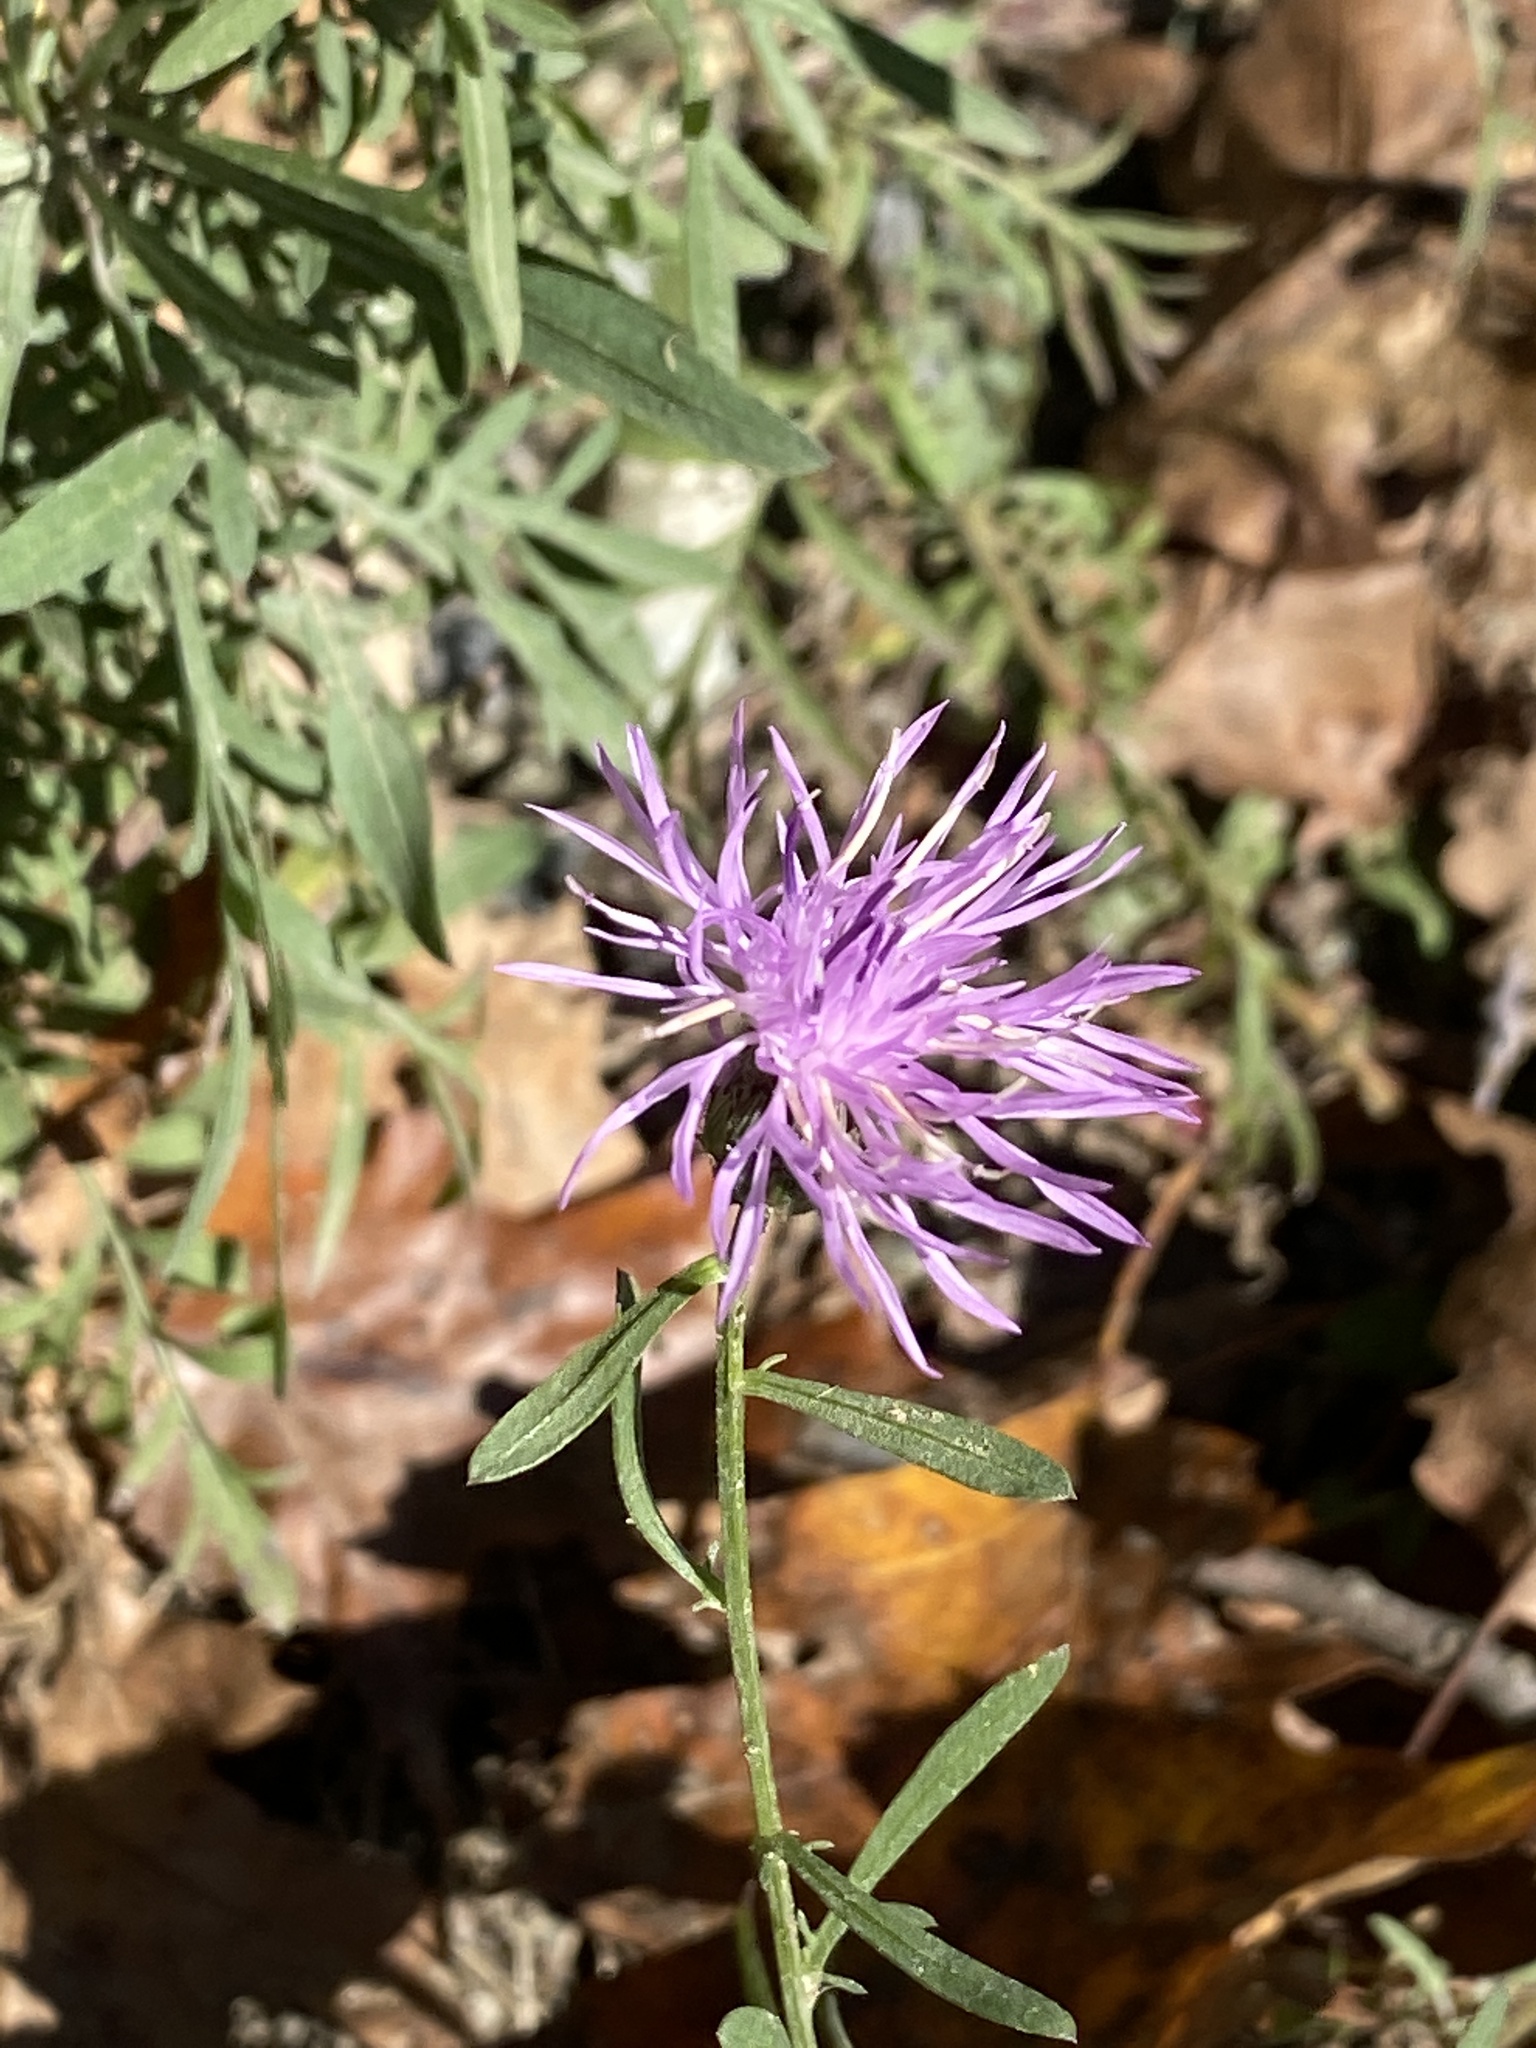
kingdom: Plantae
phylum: Tracheophyta
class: Magnoliopsida
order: Asterales
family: Asteraceae
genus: Centaurea
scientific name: Centaurea stoebe
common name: Spotted knapweed
